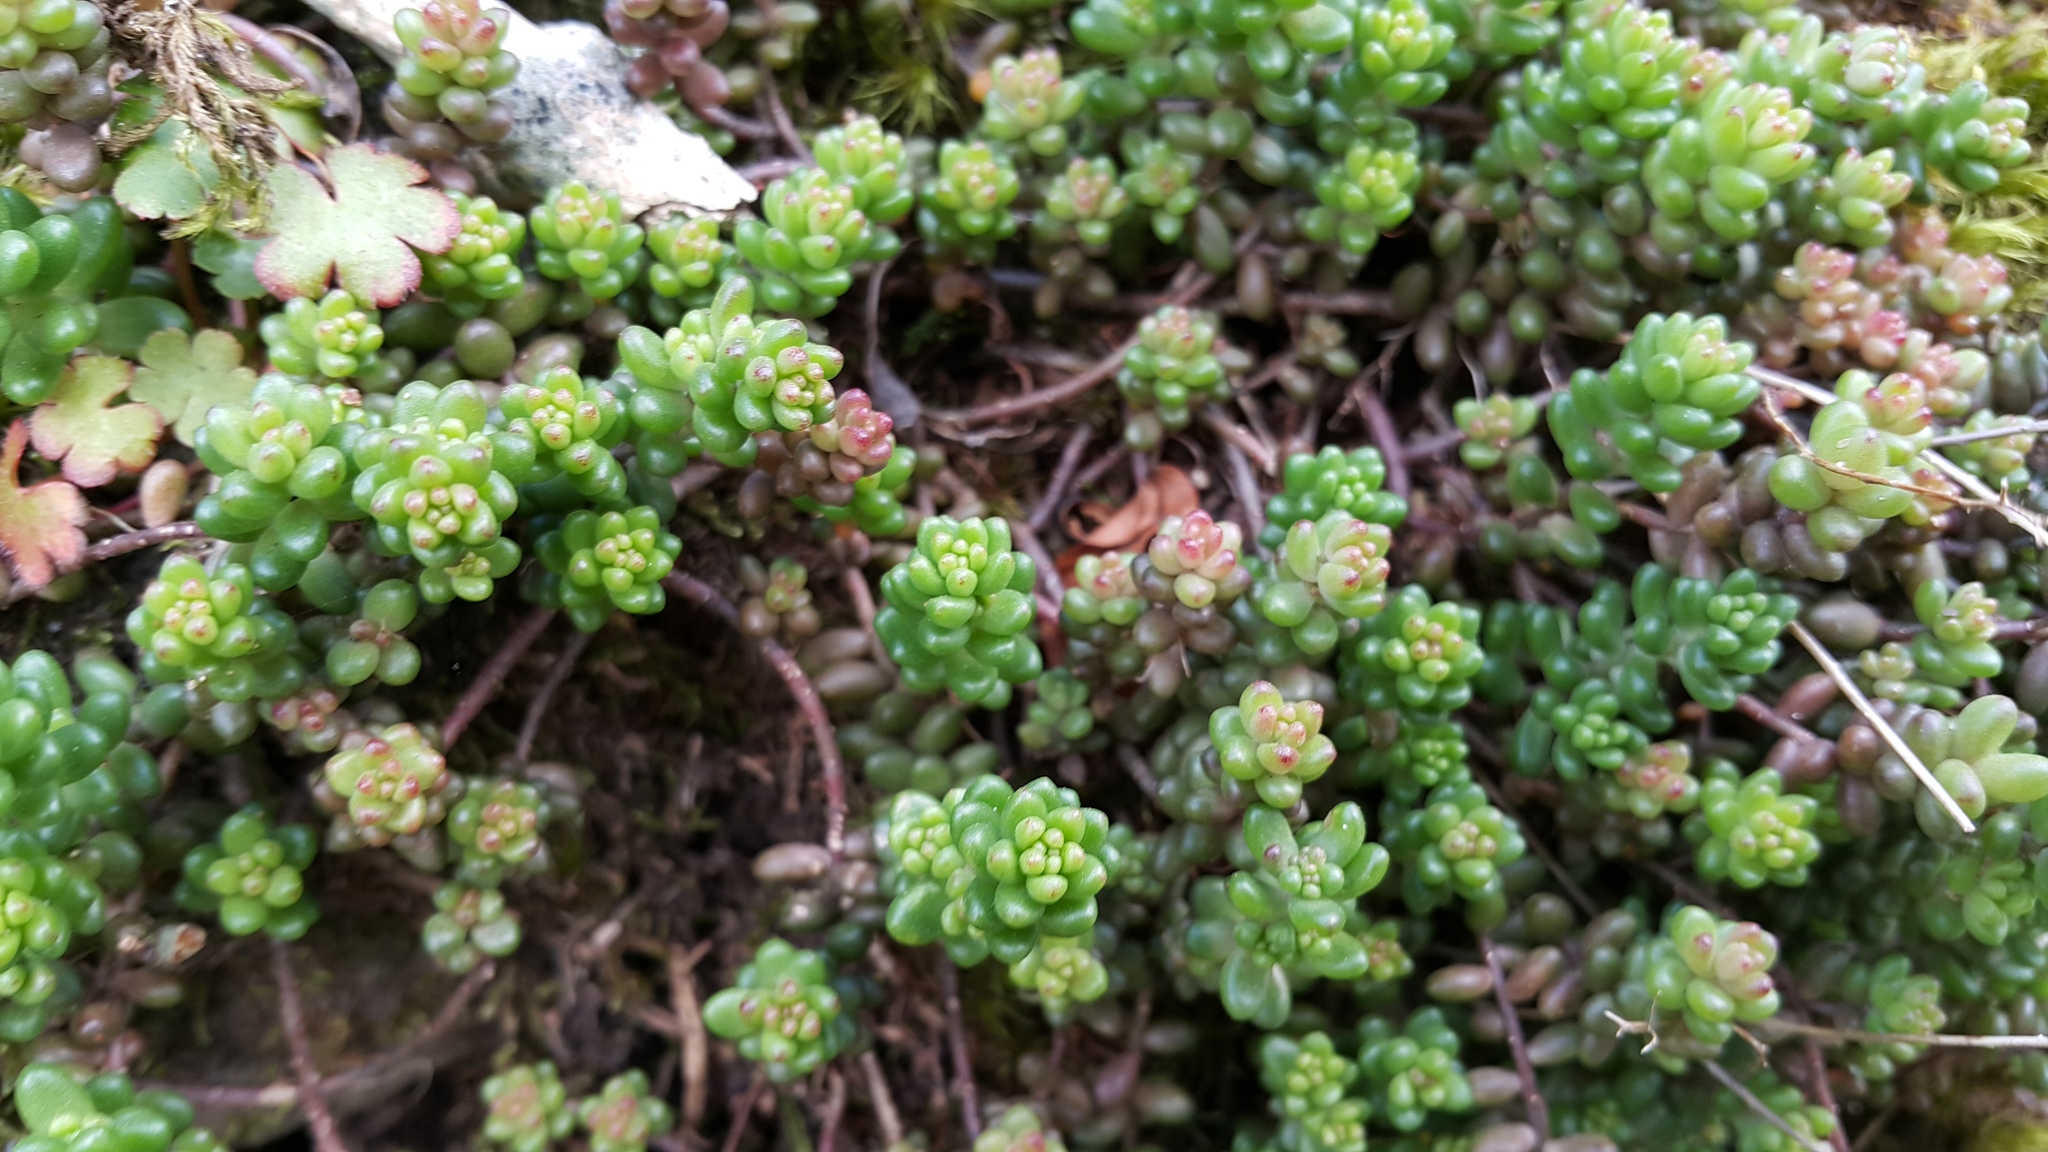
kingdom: Plantae
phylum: Tracheophyta
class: Magnoliopsida
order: Saxifragales
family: Crassulaceae
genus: Sedum
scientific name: Sedum album
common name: White stonecrop
